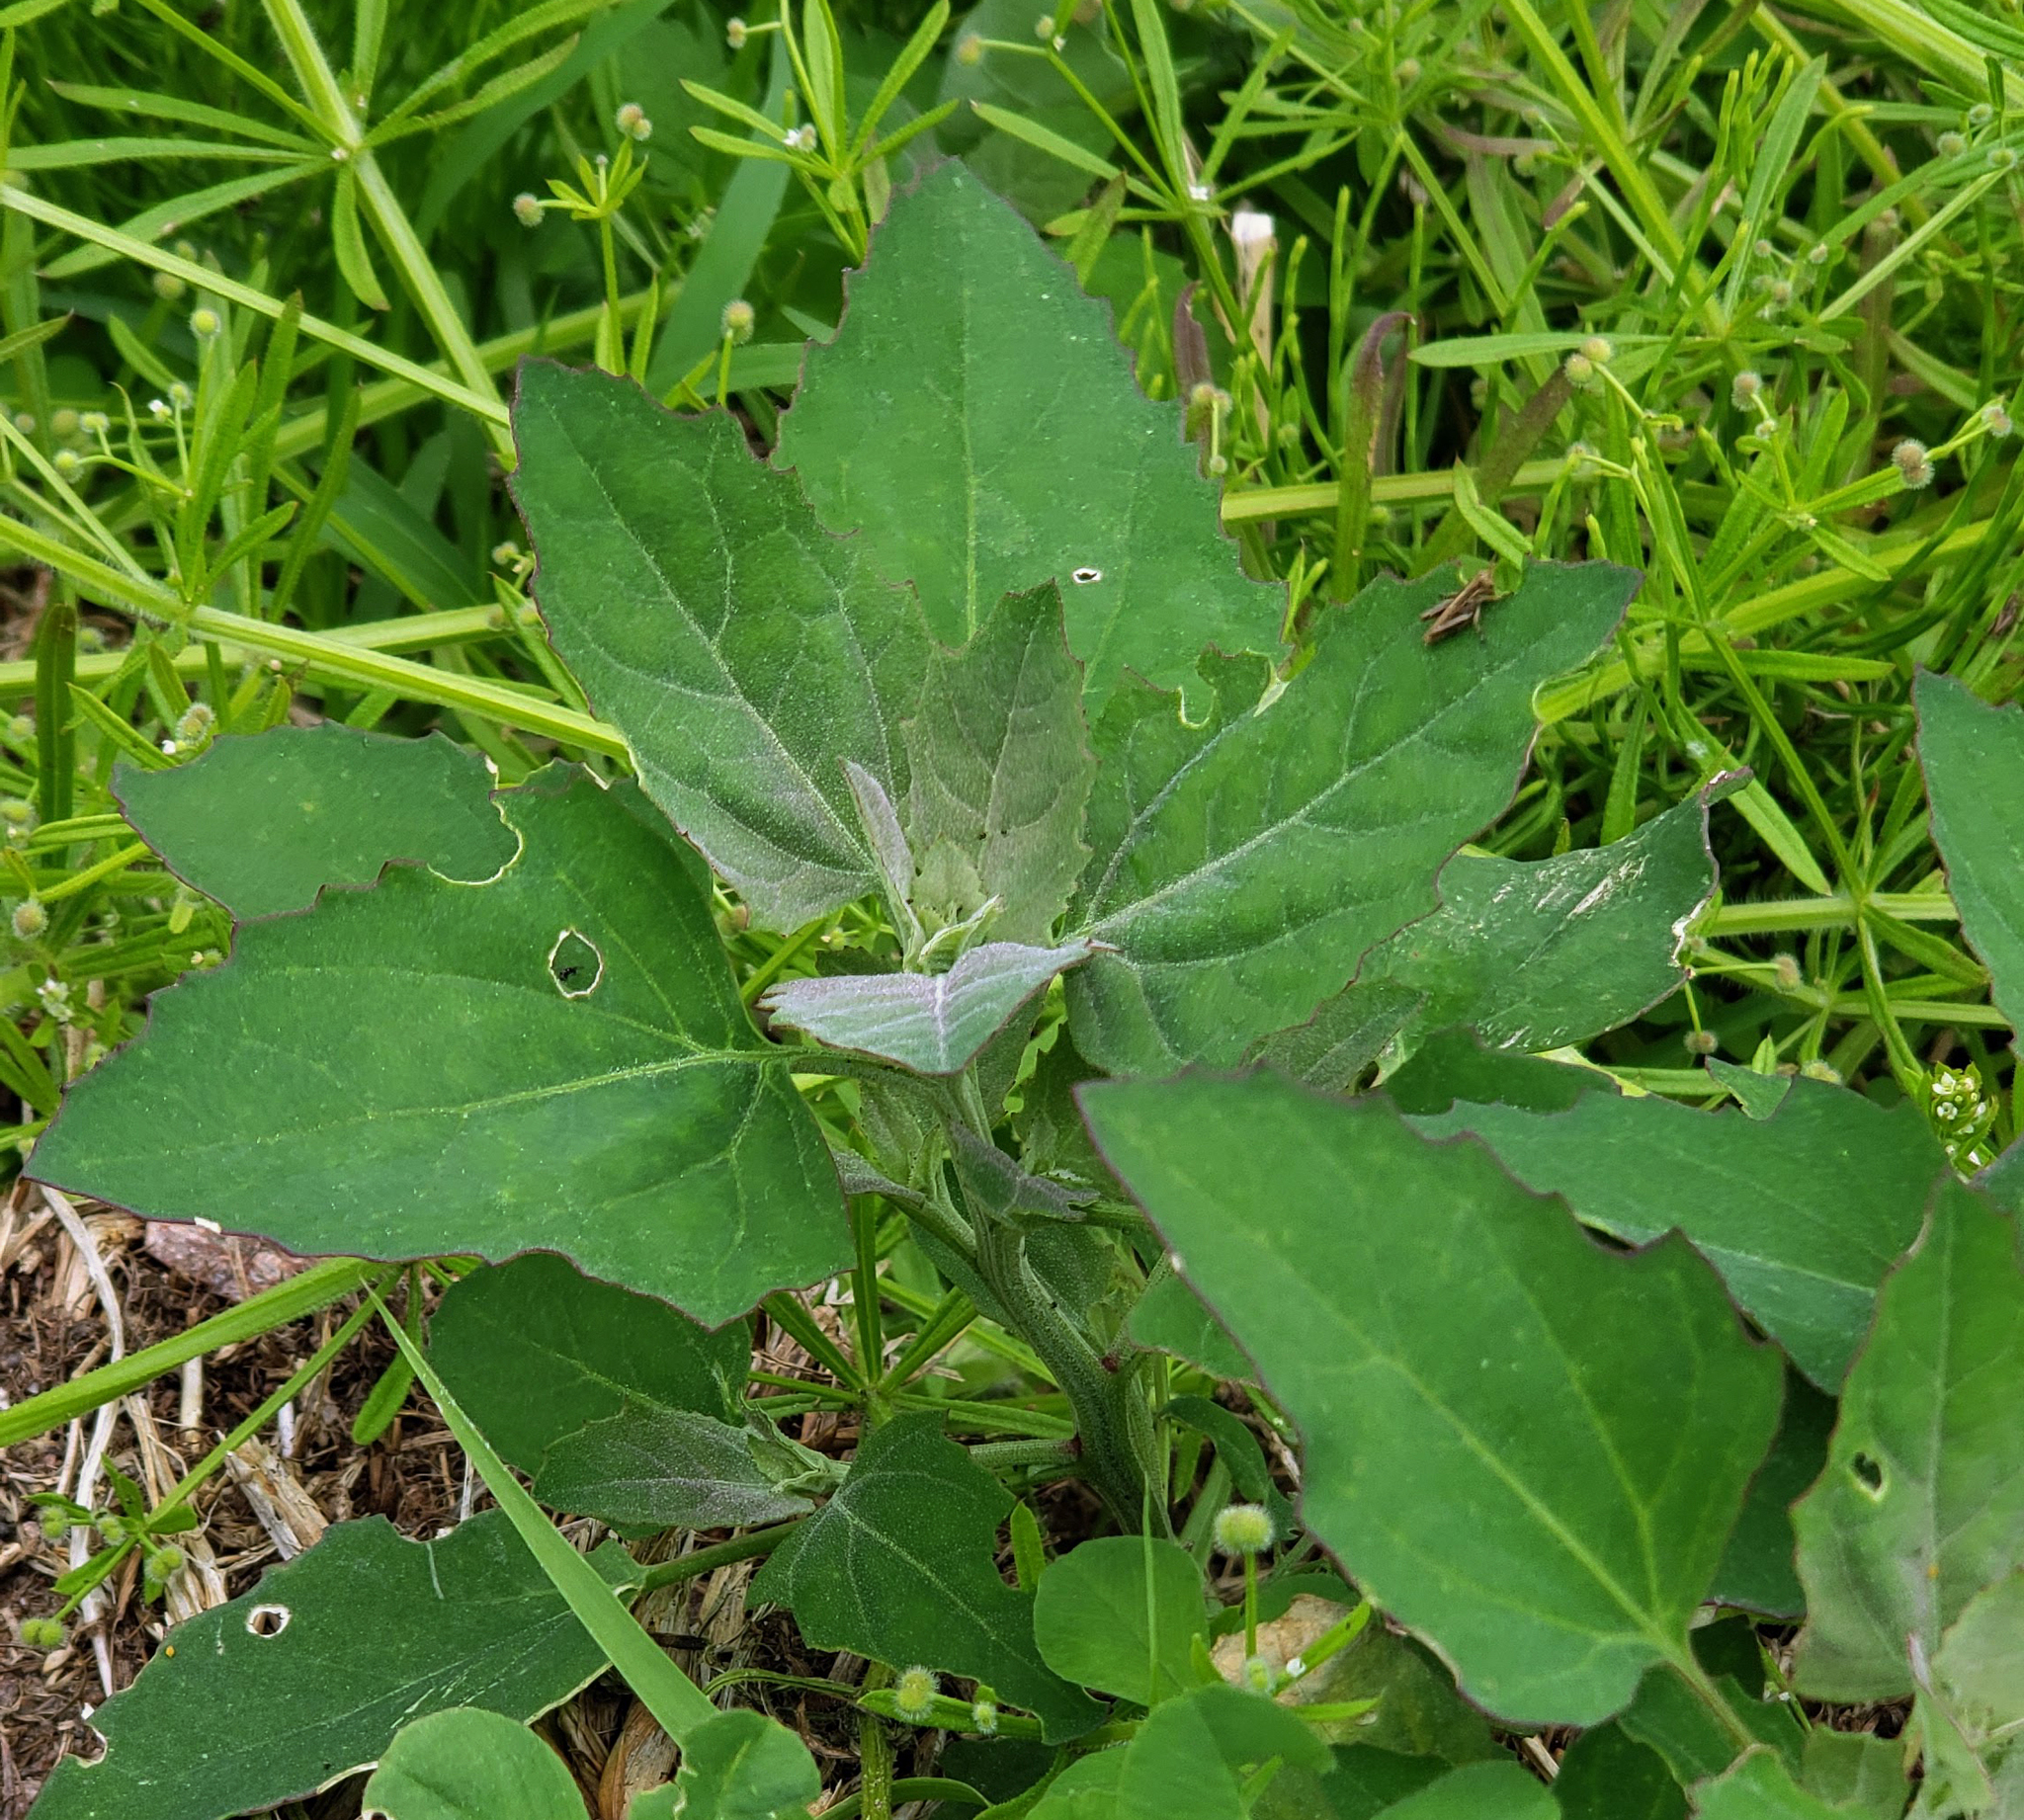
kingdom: Plantae
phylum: Tracheophyta
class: Magnoliopsida
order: Caryophyllales
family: Amaranthaceae
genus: Chenopodium
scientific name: Chenopodium album
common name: Fat-hen
